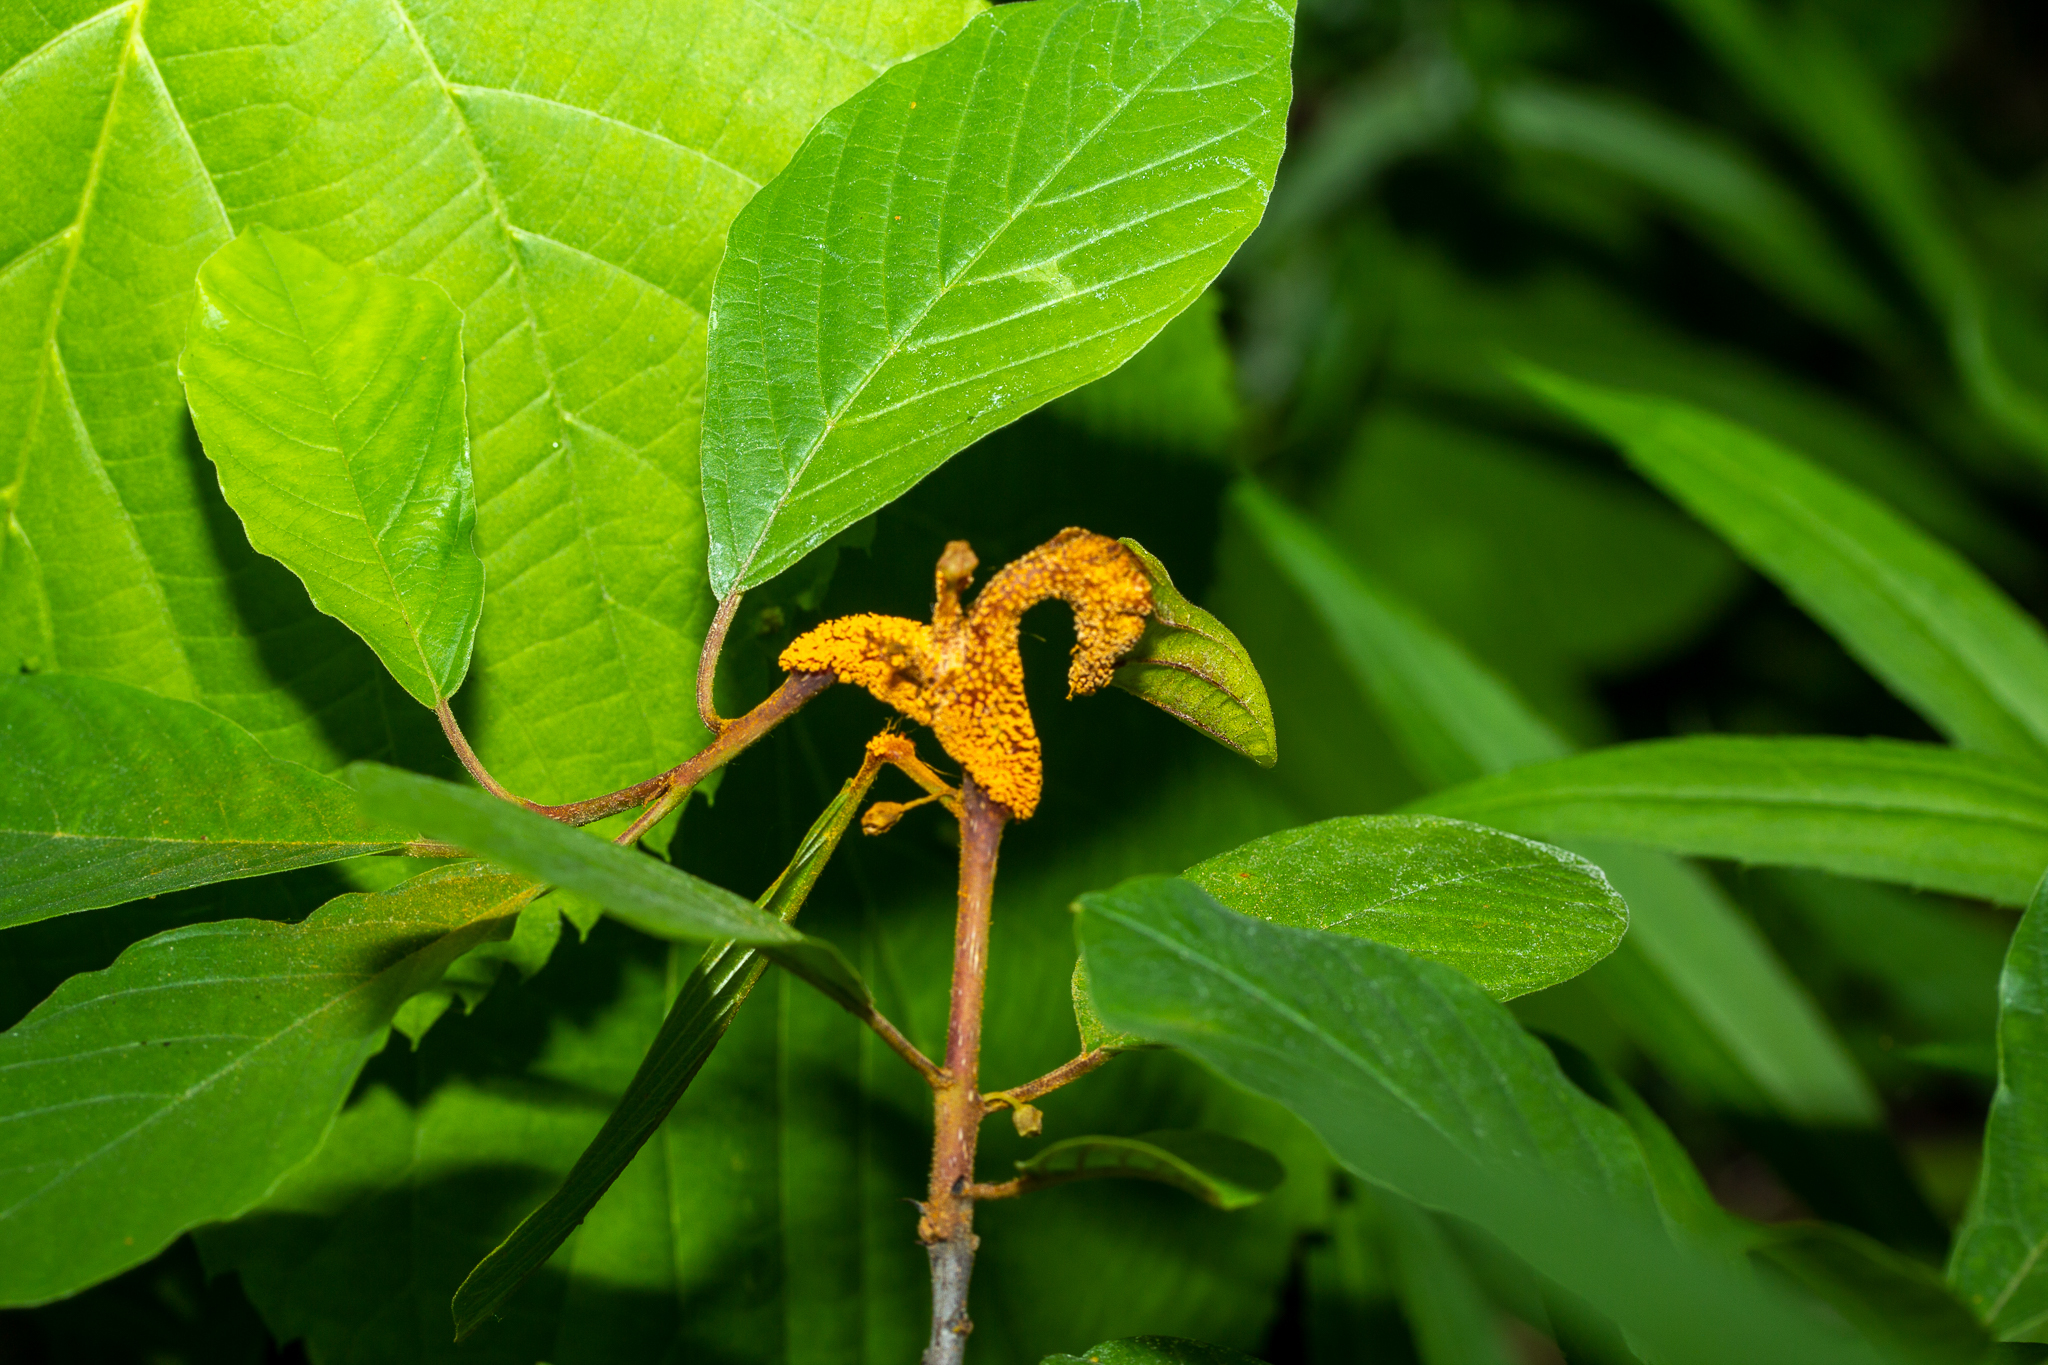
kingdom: Fungi
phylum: Basidiomycota
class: Pucciniomycetes
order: Pucciniales
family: Pucciniaceae
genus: Puccinia
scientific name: Puccinia coronata
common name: Crown rust
